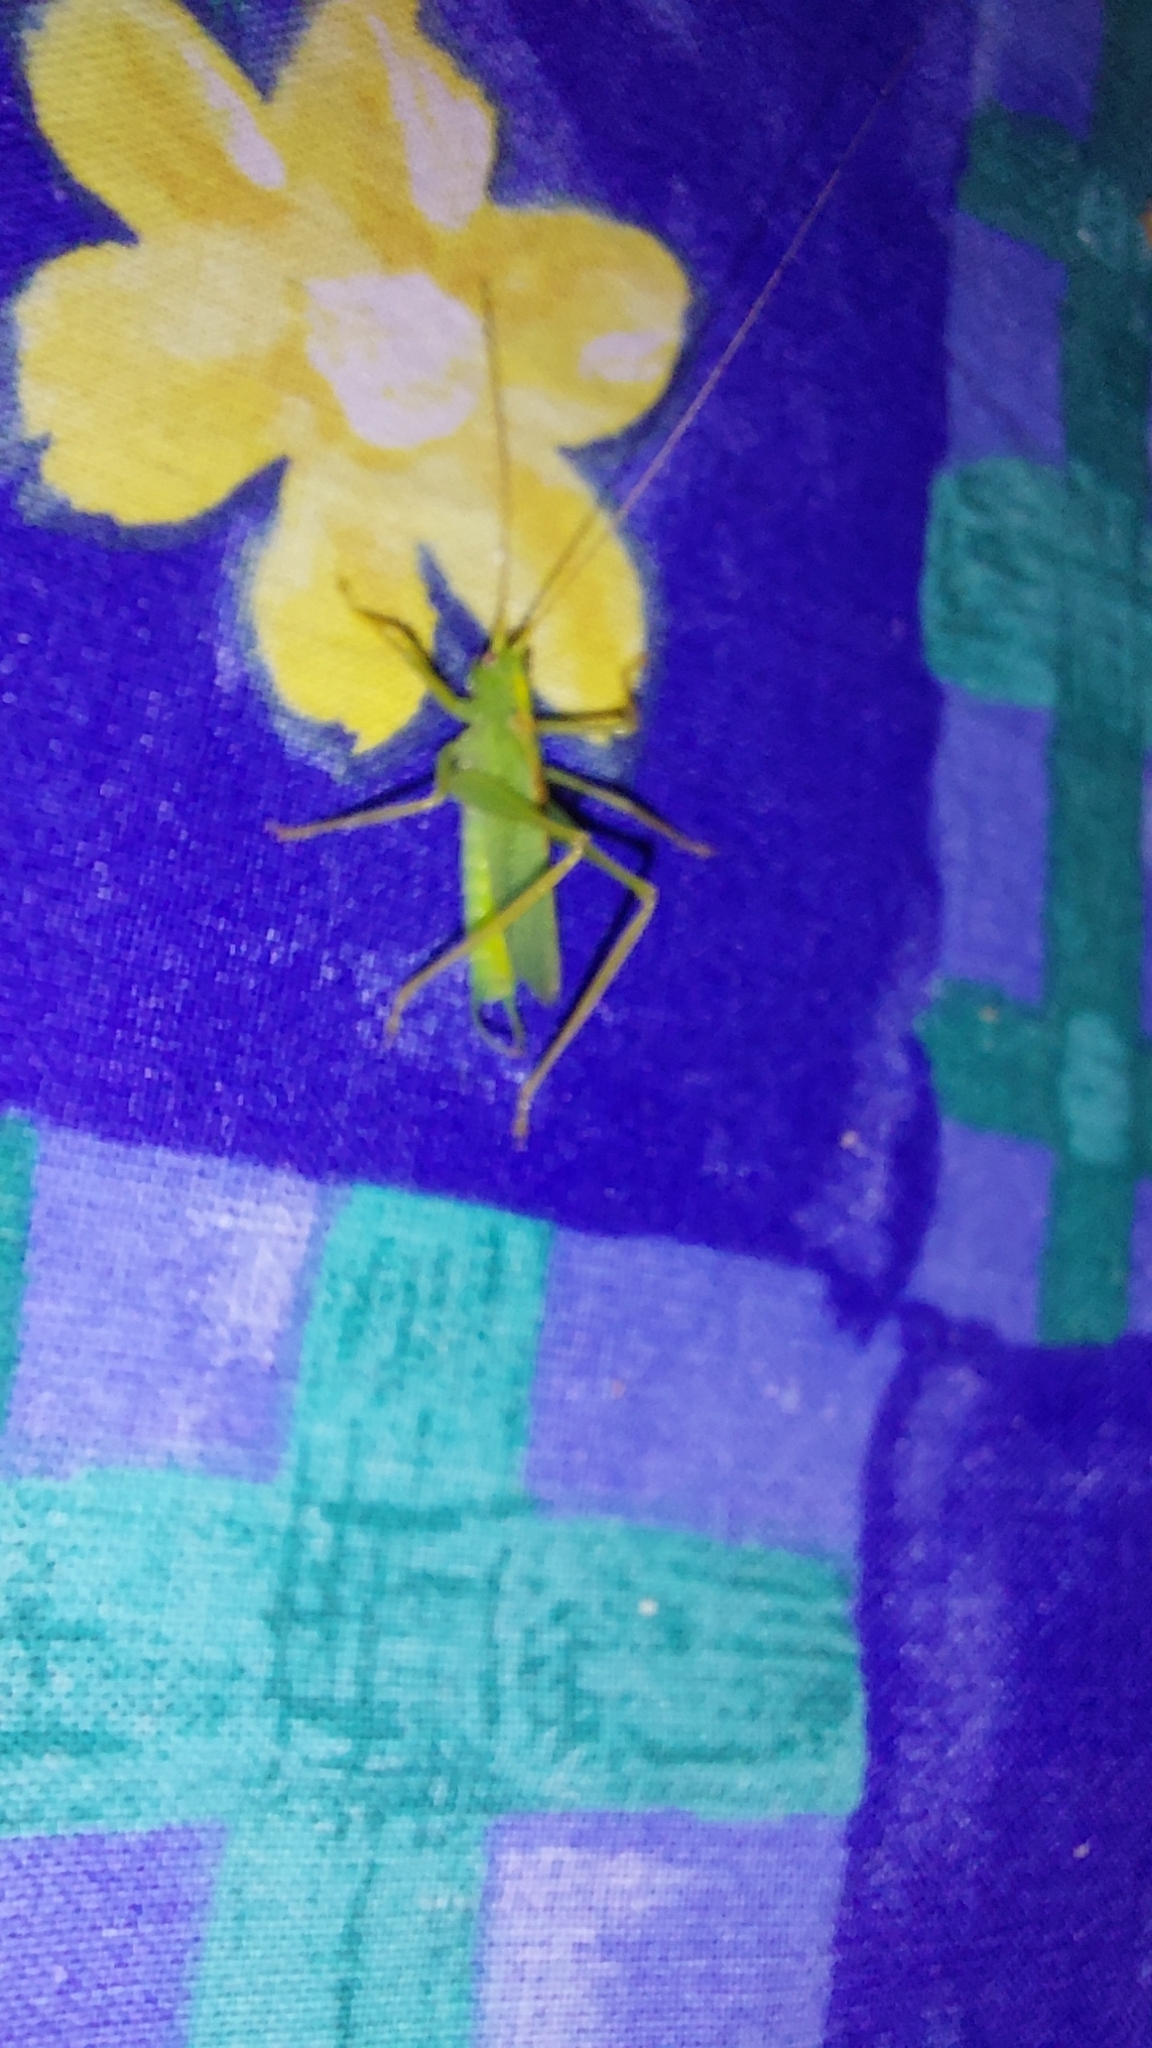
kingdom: Animalia
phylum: Arthropoda
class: Insecta
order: Orthoptera
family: Tettigoniidae
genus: Meconema
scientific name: Meconema thalassinum
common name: Oak bush-cricket
